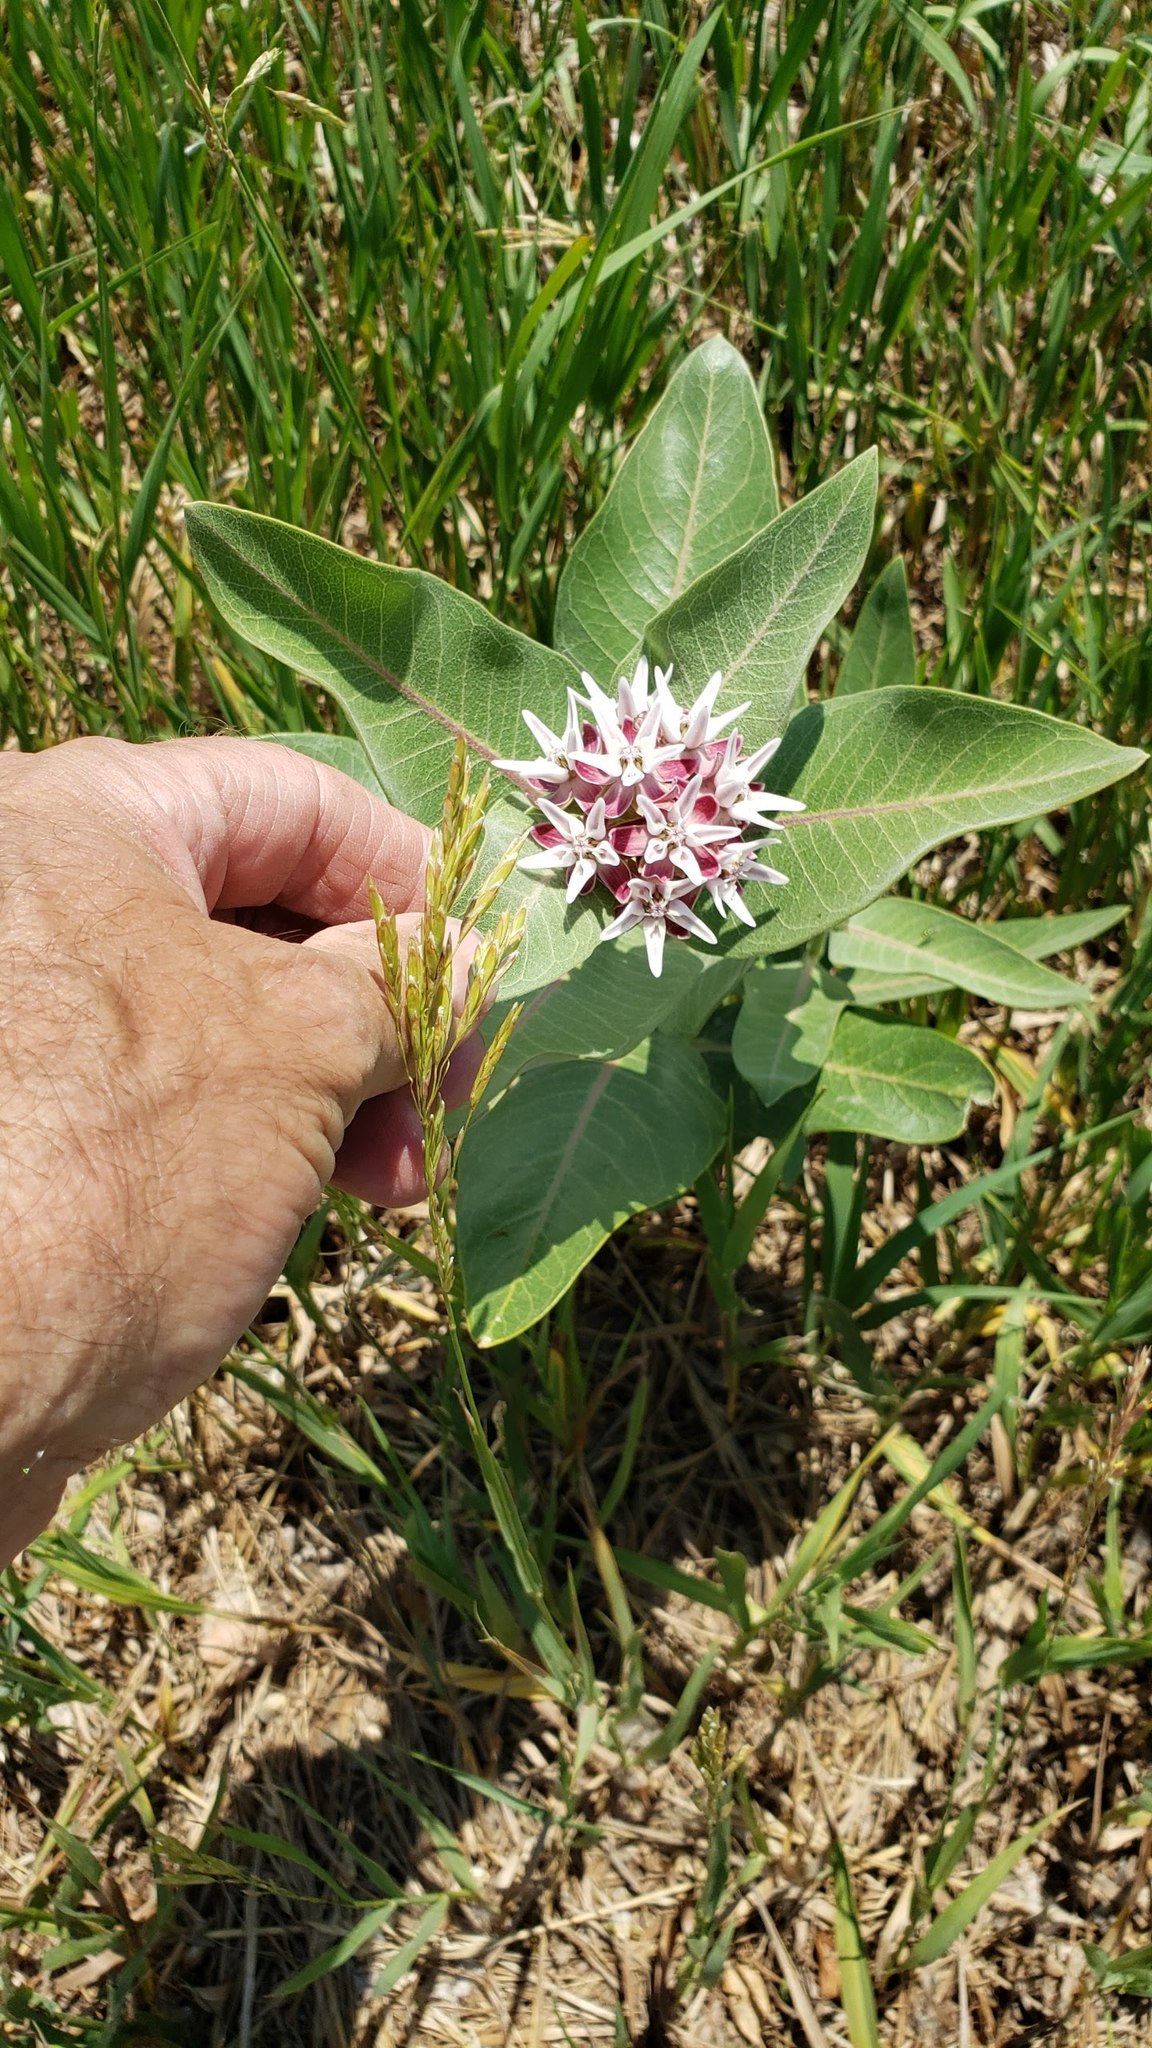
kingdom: Plantae
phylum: Tracheophyta
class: Magnoliopsida
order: Gentianales
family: Apocynaceae
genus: Asclepias
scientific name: Asclepias speciosa
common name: Showy milkweed
